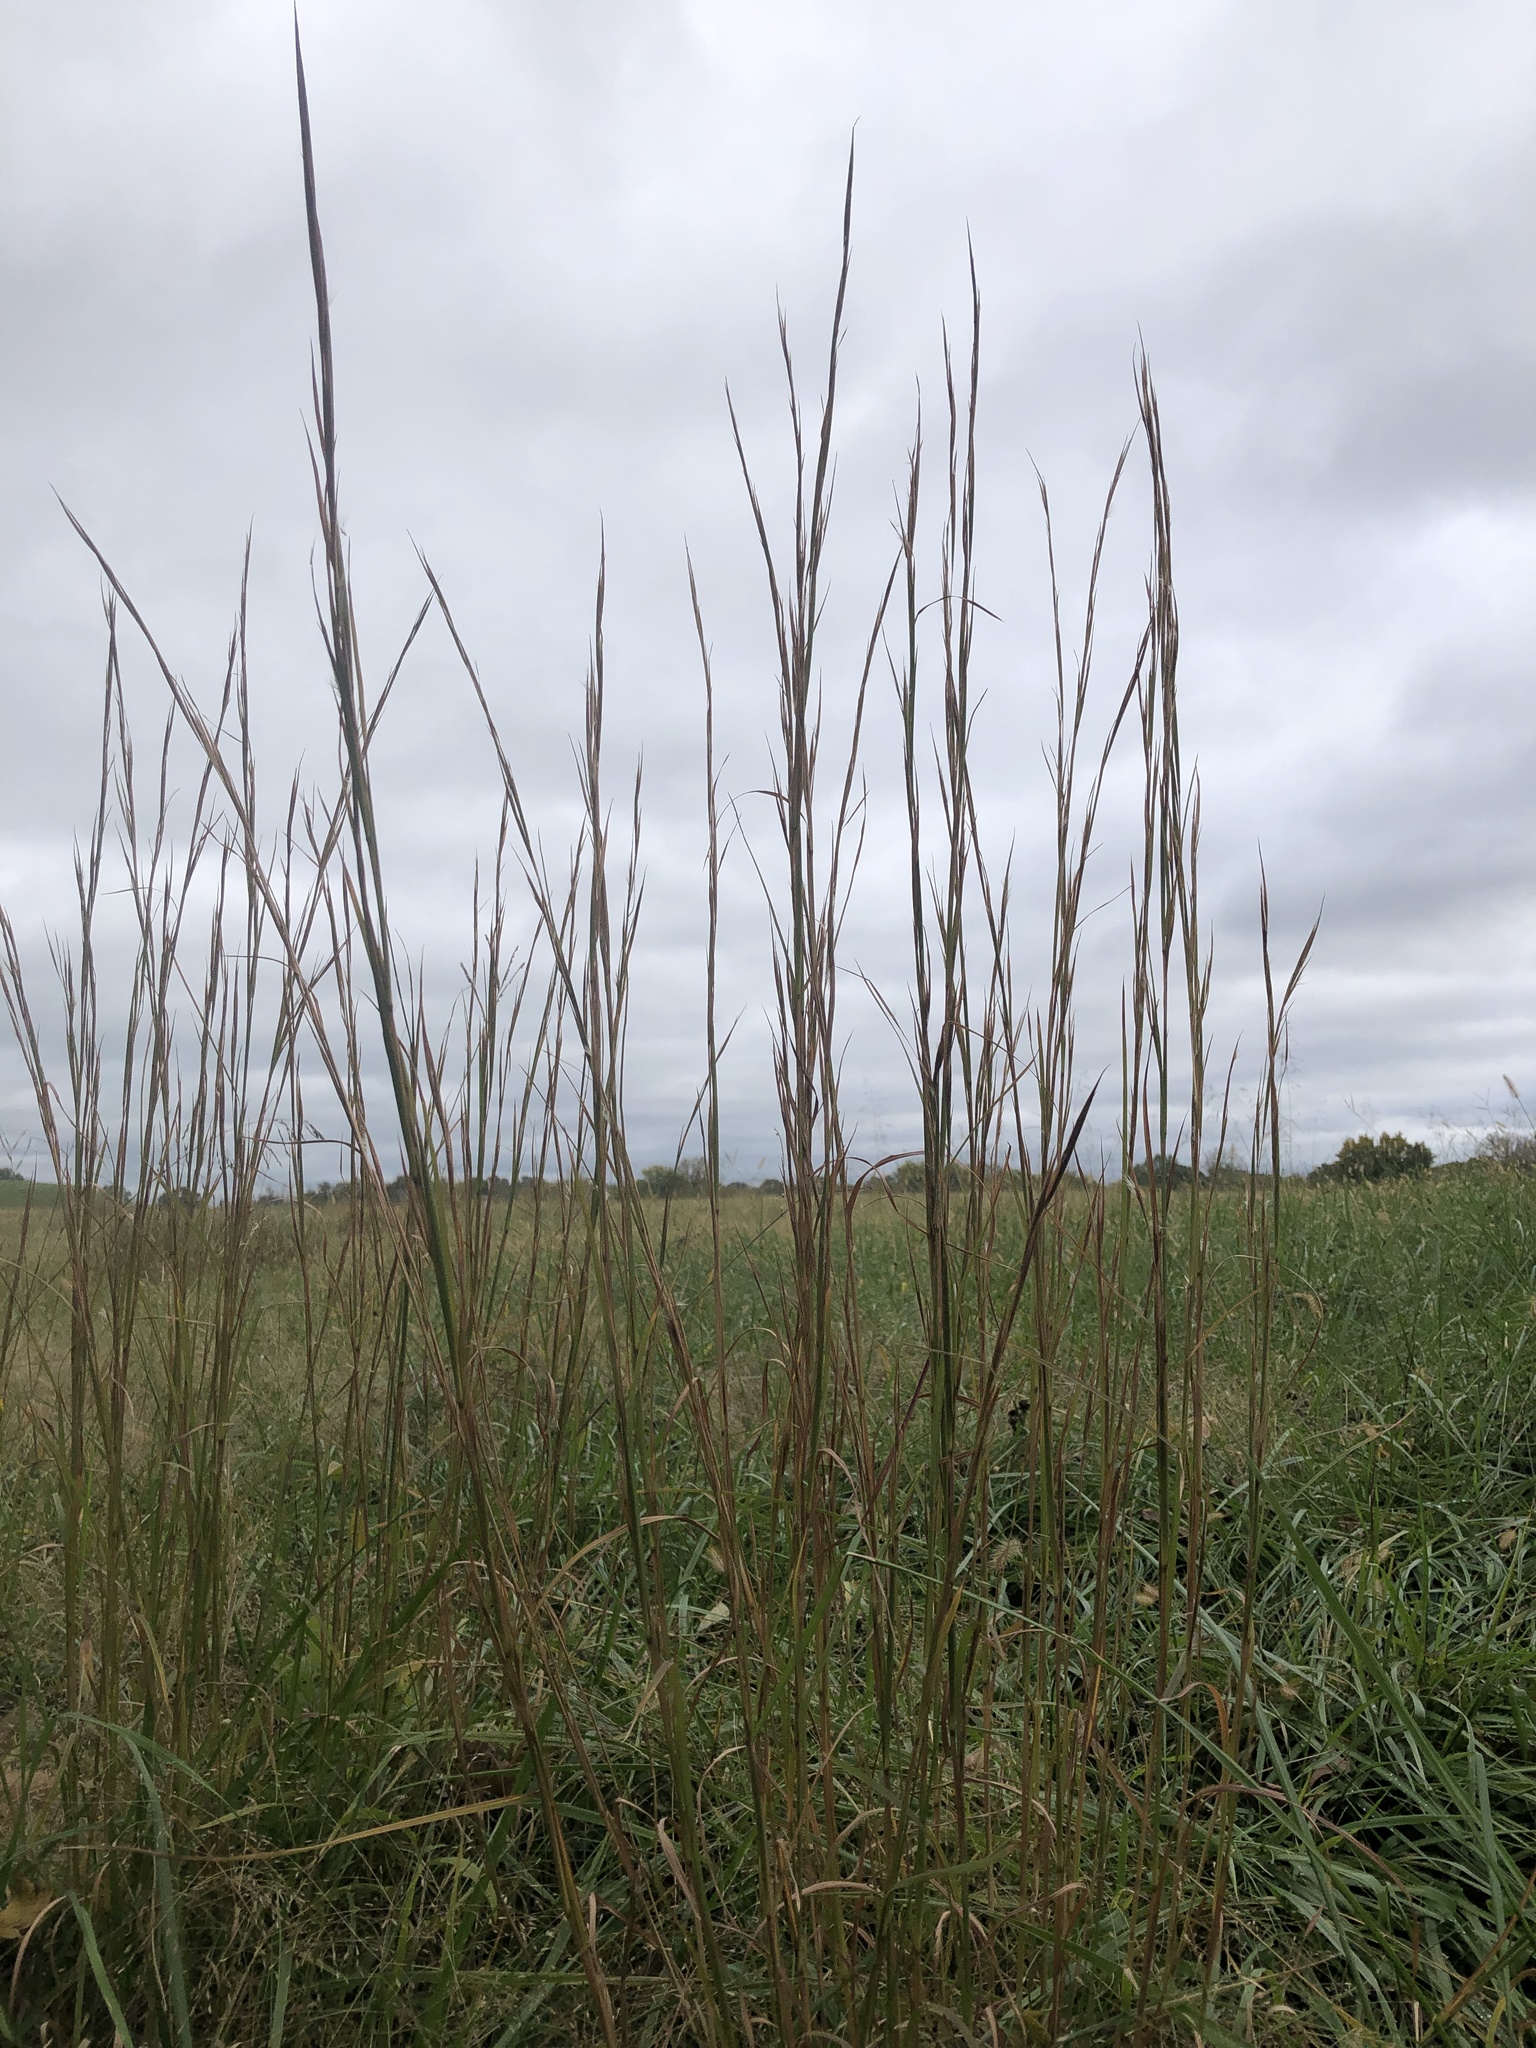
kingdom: Plantae
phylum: Tracheophyta
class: Liliopsida
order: Poales
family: Poaceae
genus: Andropogon
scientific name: Andropogon virginicus
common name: Broomsedge bluestem
